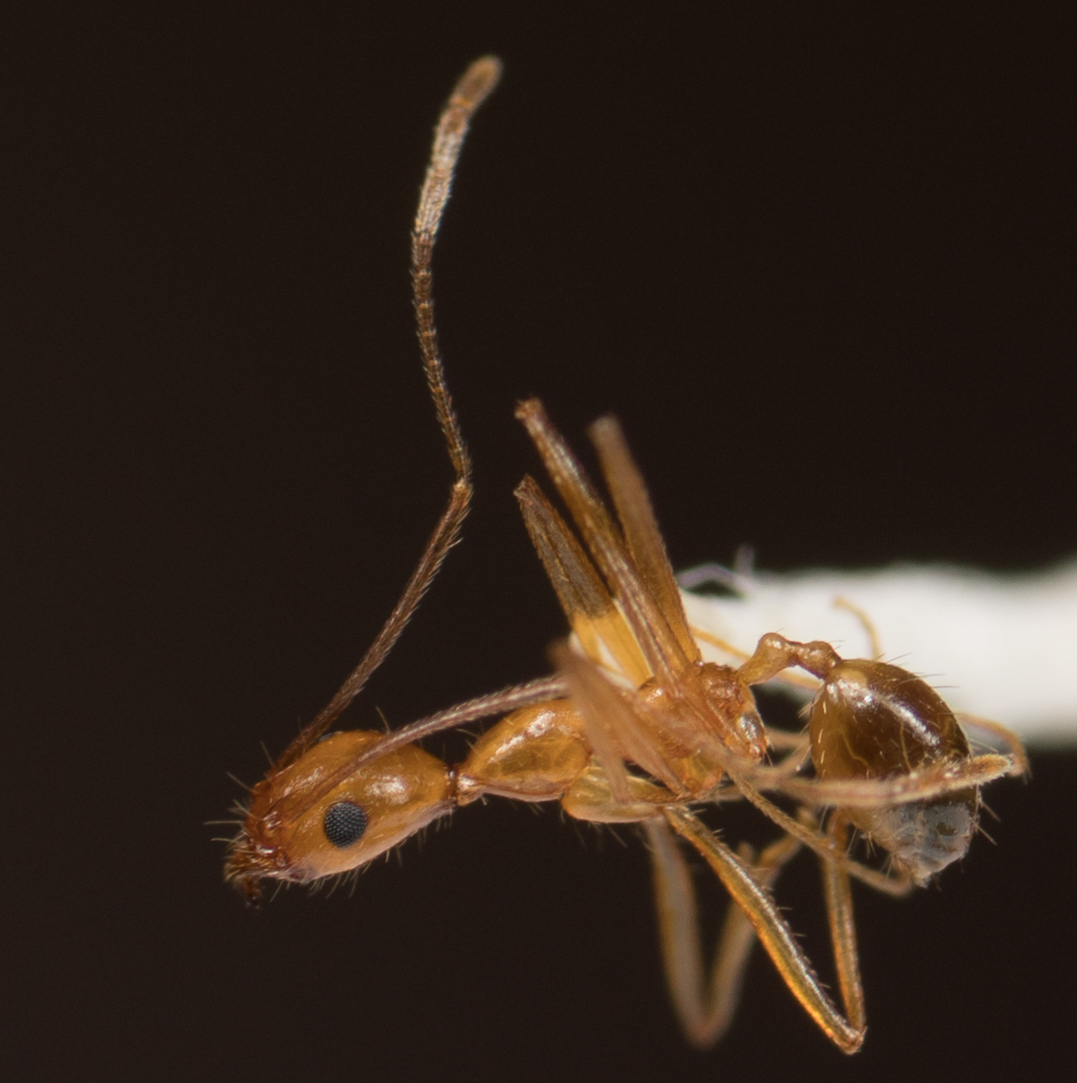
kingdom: Animalia
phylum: Arthropoda
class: Insecta
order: Hymenoptera
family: Formicidae
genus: Pheidole
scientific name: Pheidole vistana
